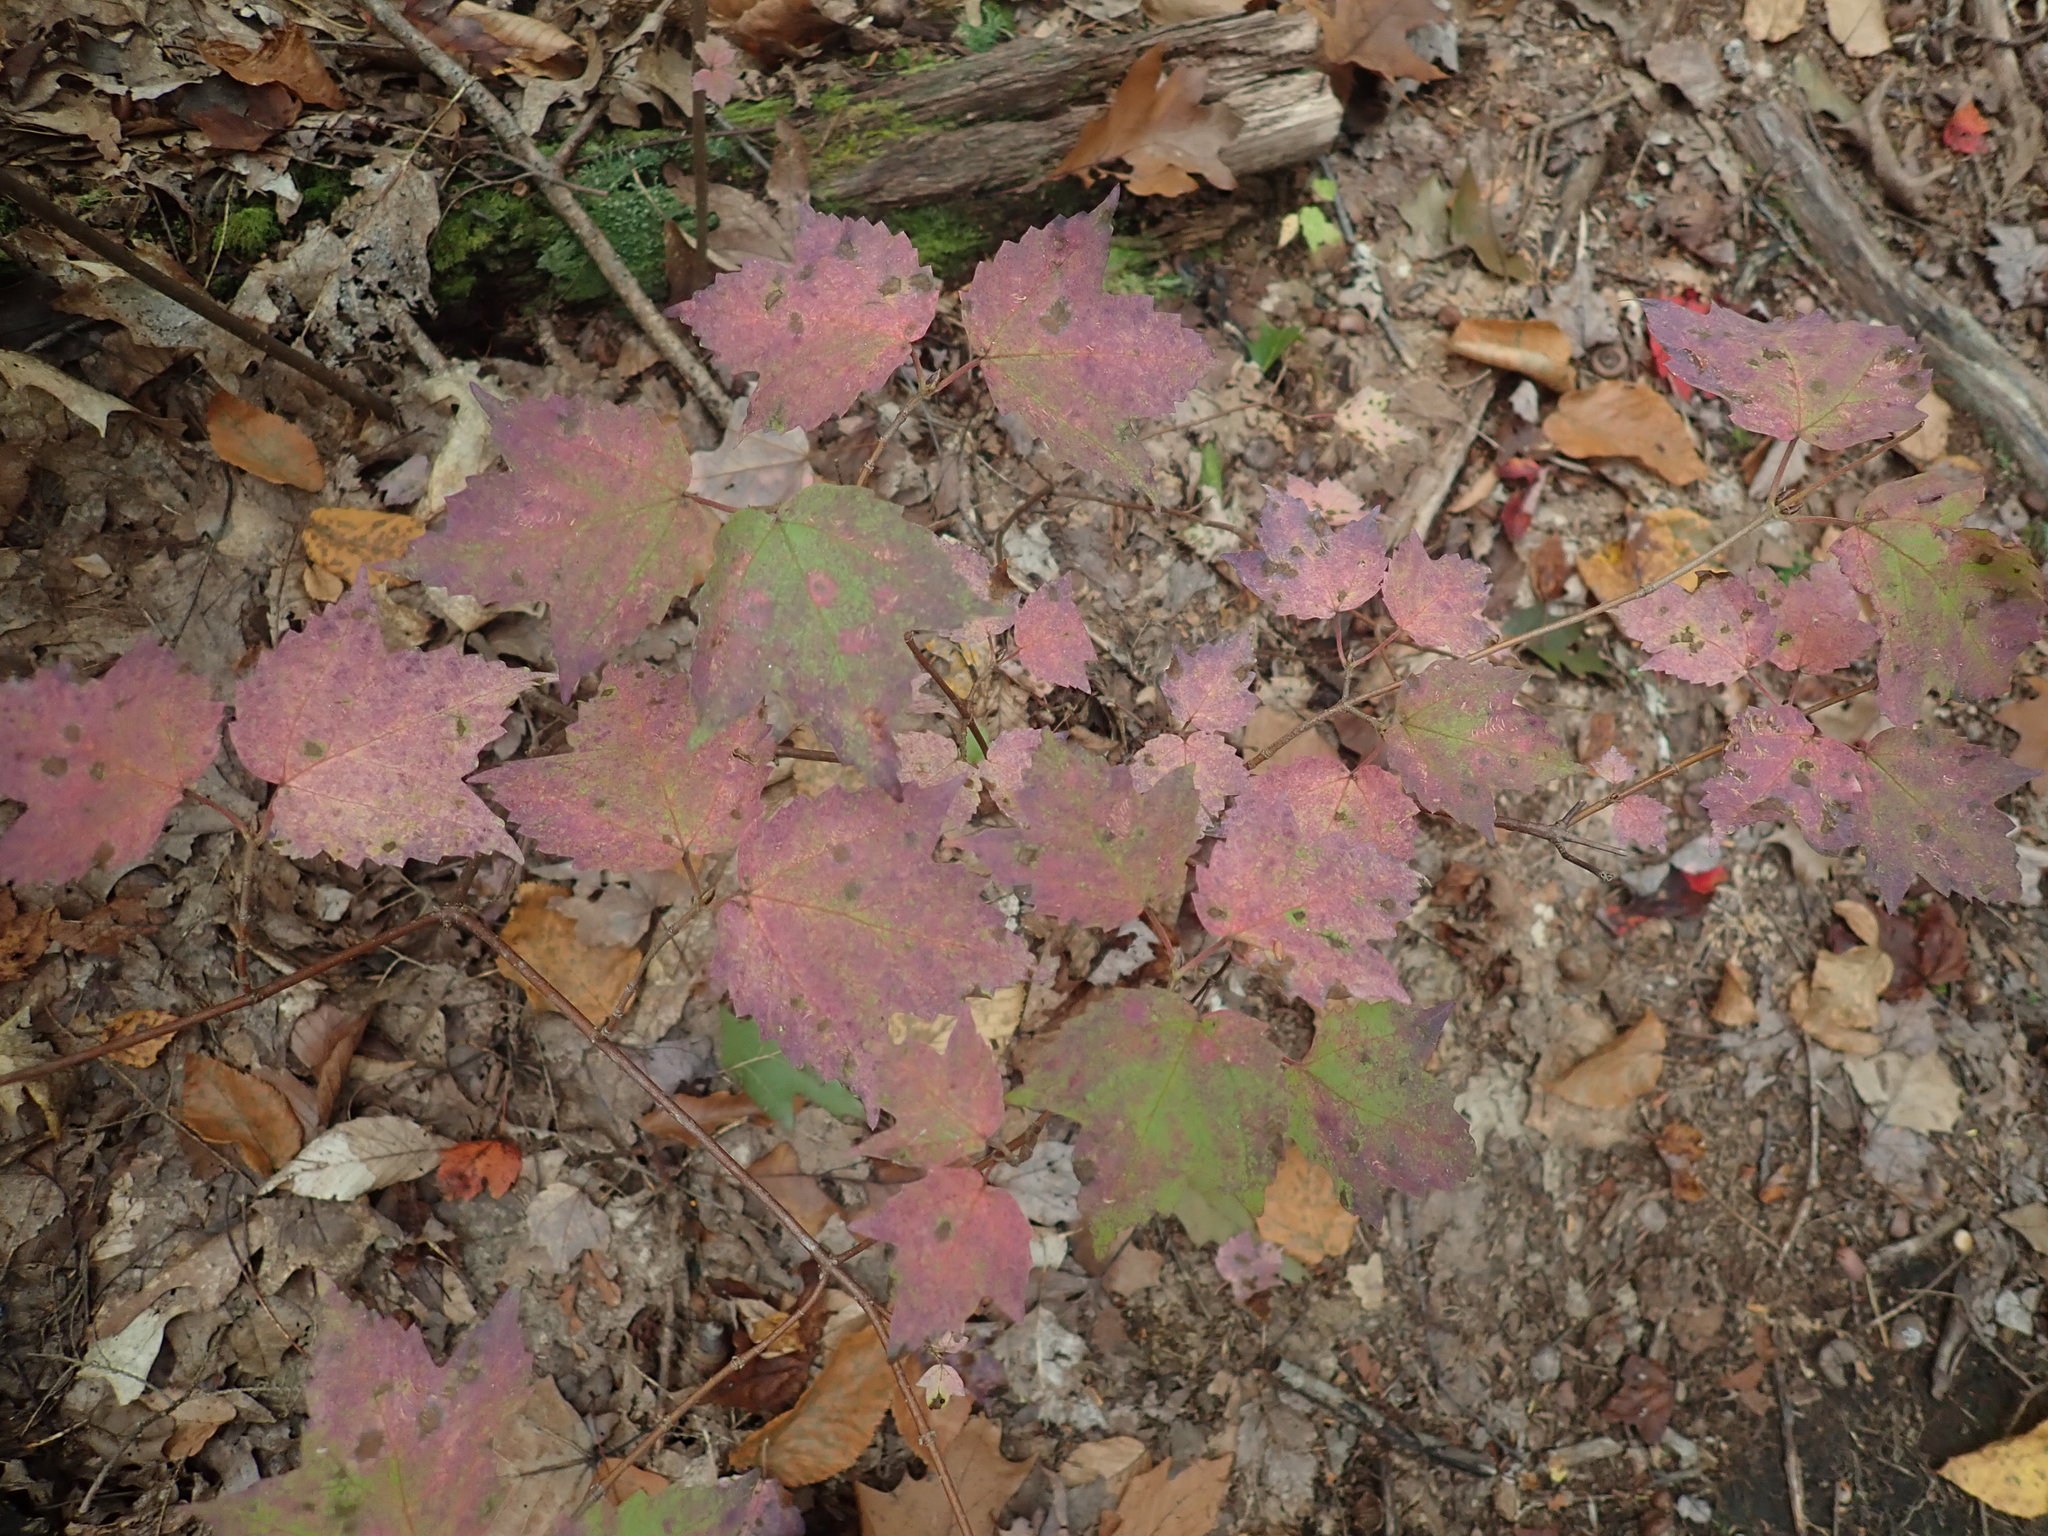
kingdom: Plantae
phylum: Tracheophyta
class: Magnoliopsida
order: Dipsacales
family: Viburnaceae
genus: Viburnum
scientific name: Viburnum acerifolium
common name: Dockmackie
